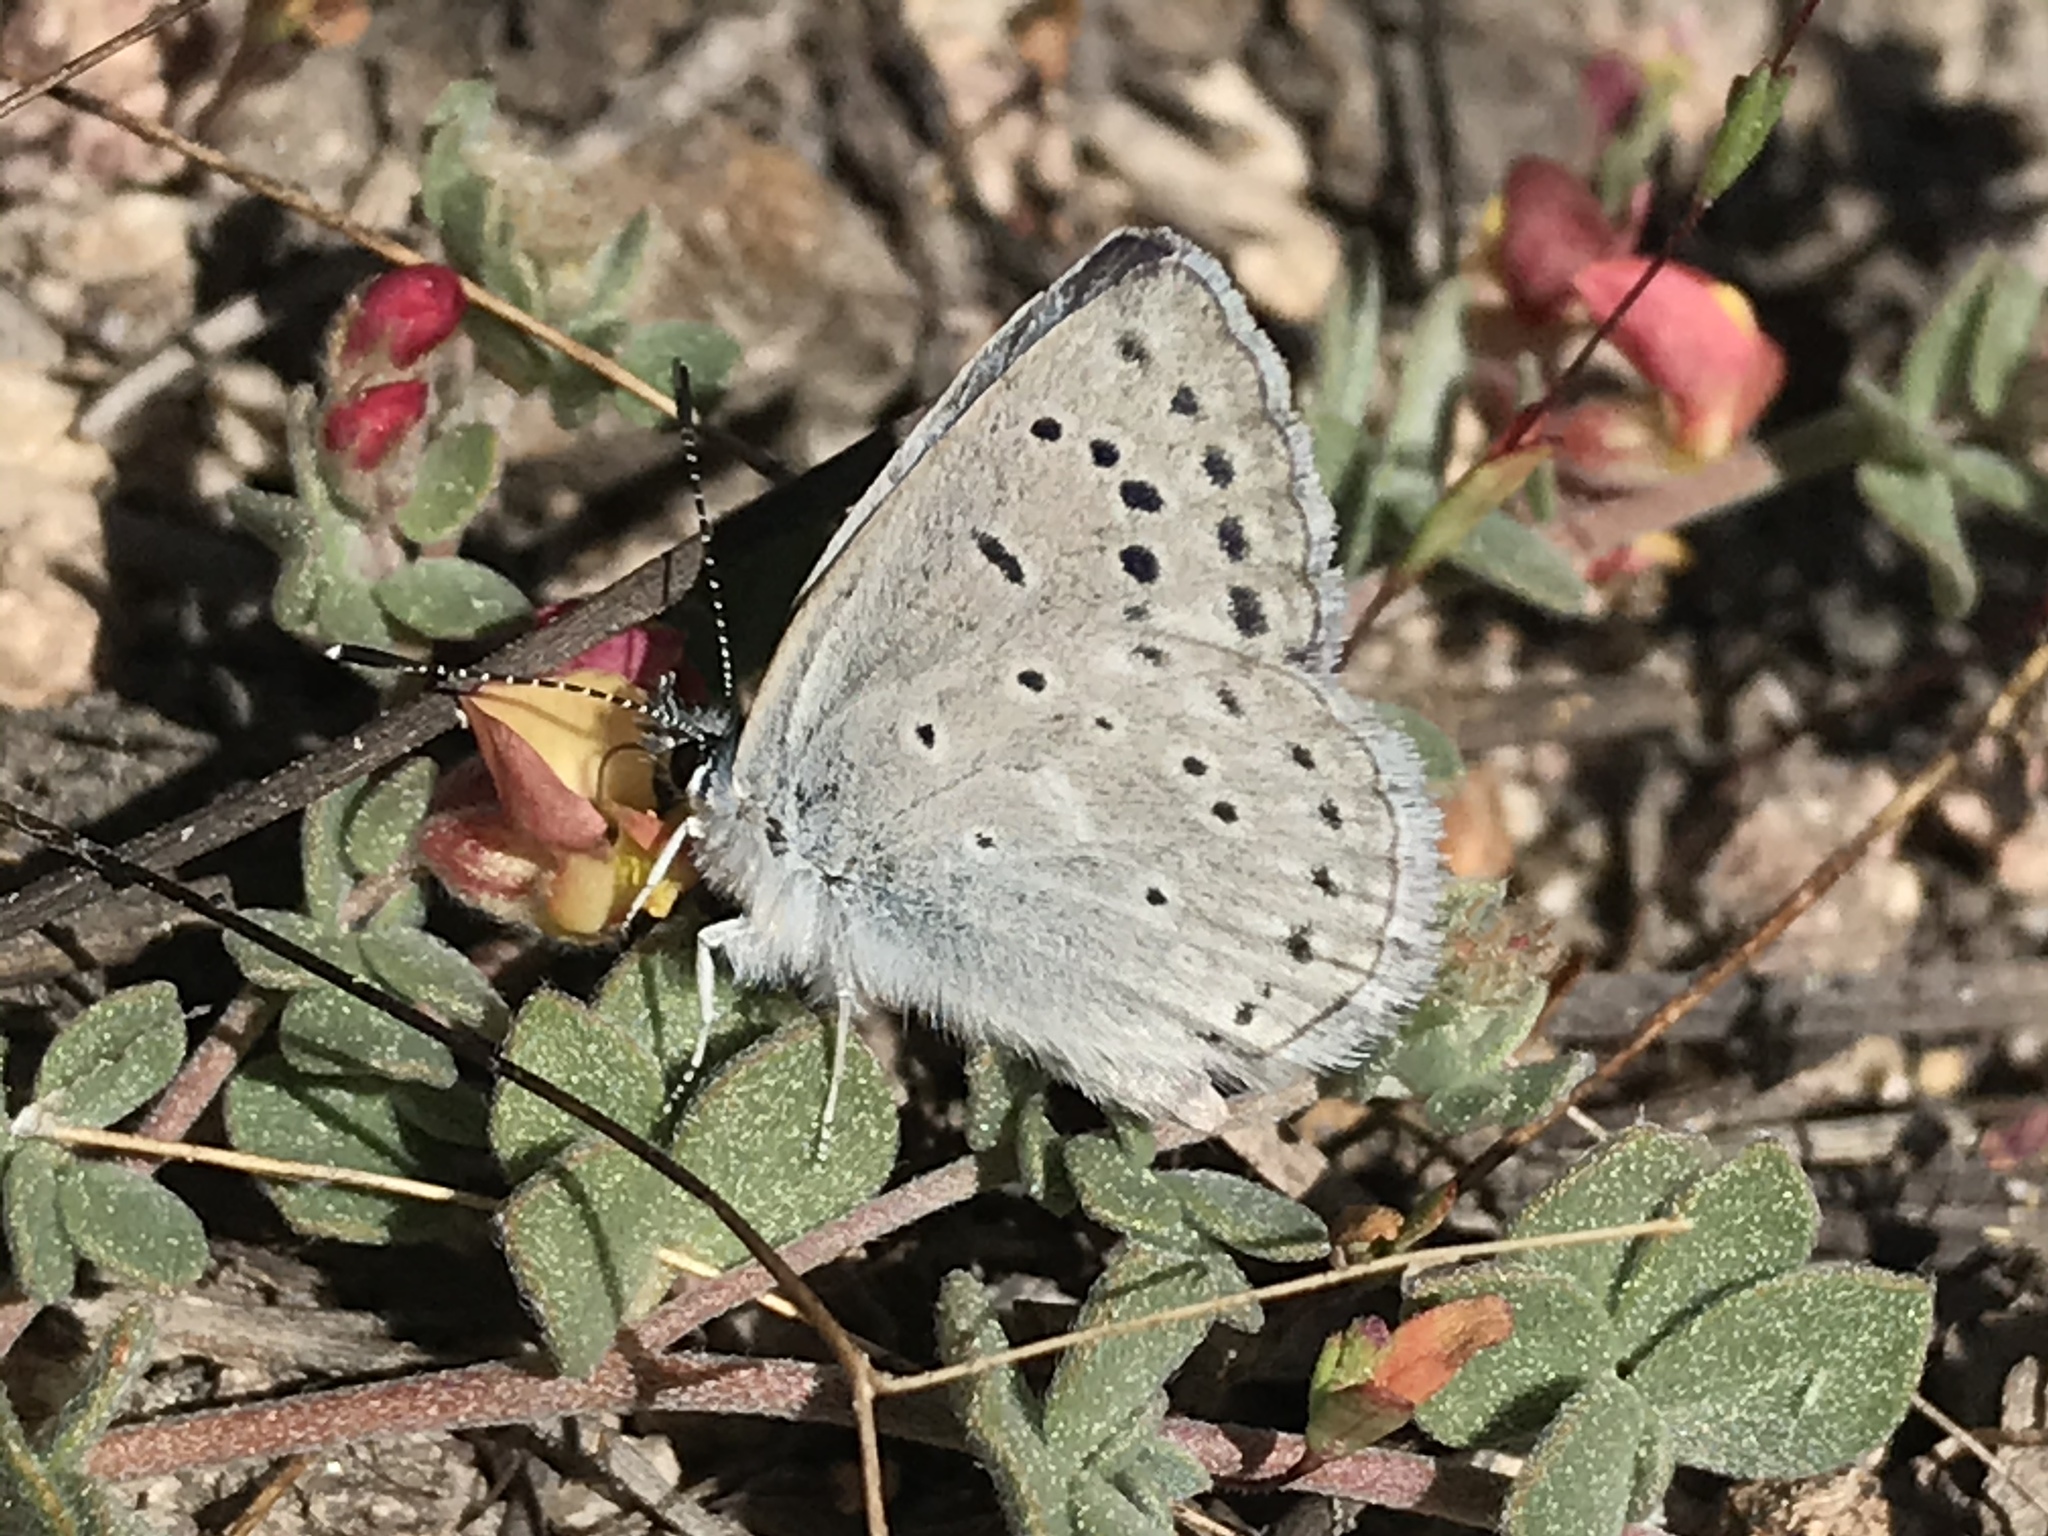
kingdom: Animalia
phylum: Arthropoda
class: Insecta
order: Lepidoptera
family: Lycaenidae
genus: Icaricia
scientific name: Icaricia icarioides
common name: Boisduval's blue
